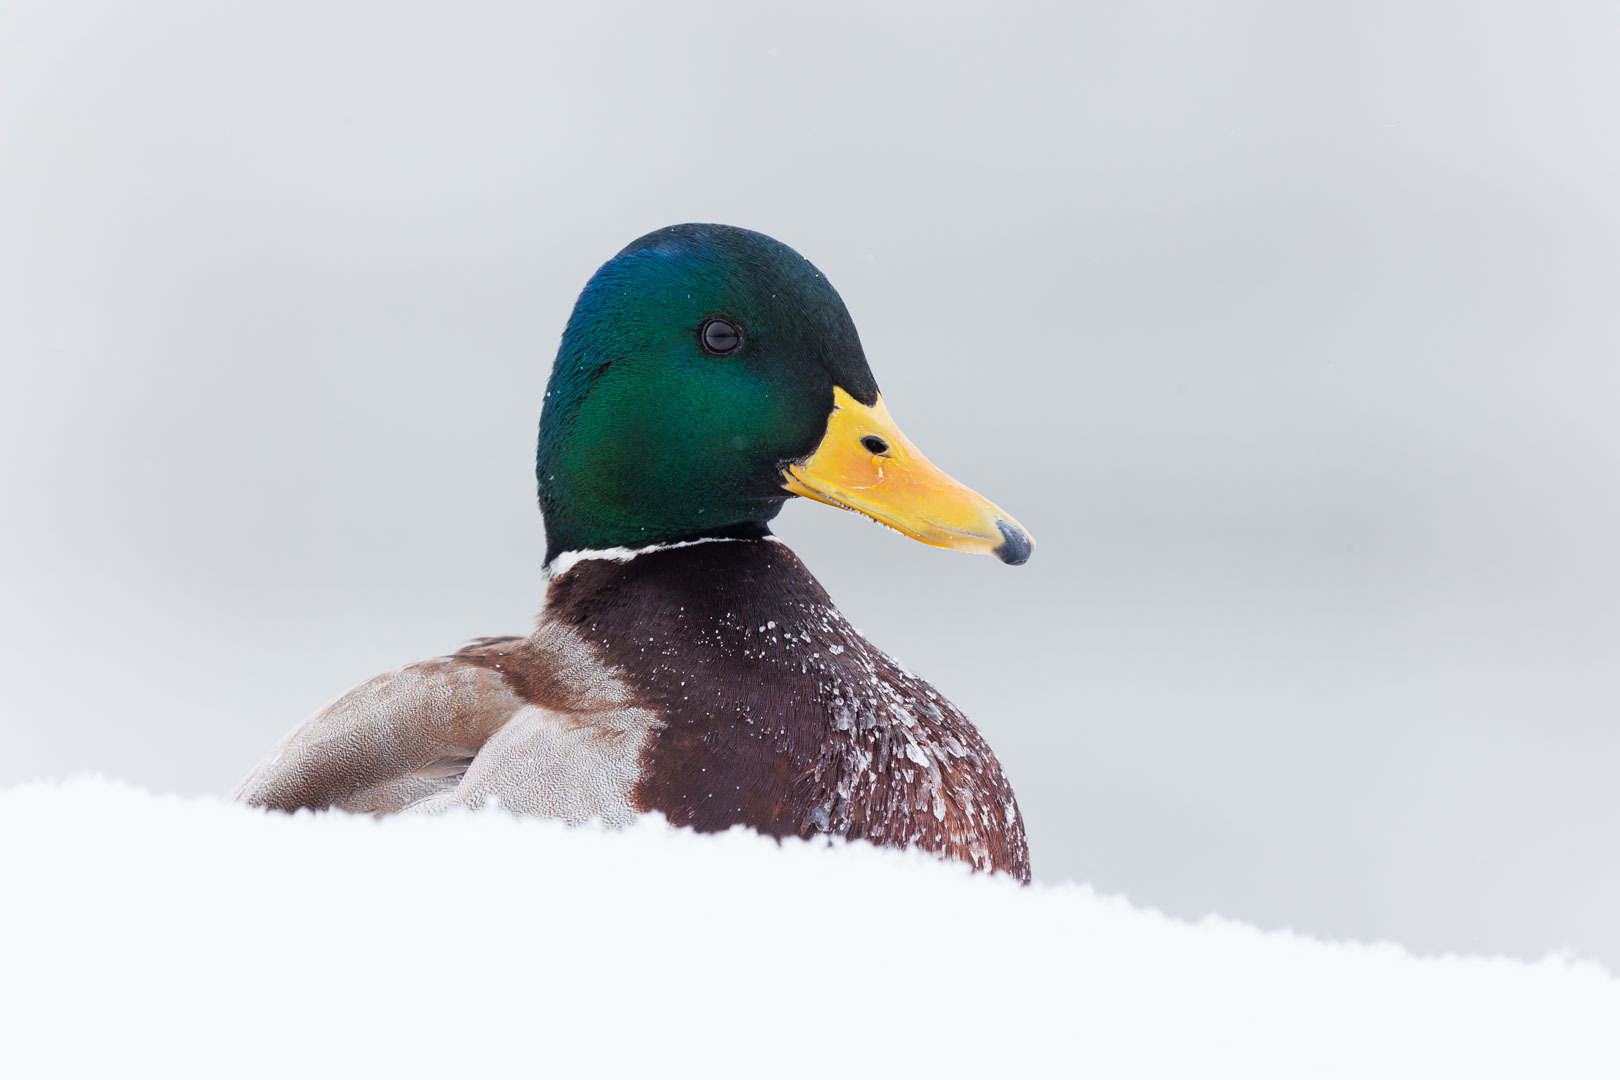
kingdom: Animalia
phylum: Chordata
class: Aves
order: Anseriformes
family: Anatidae
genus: Anas
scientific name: Anas platyrhynchos
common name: Mallard
